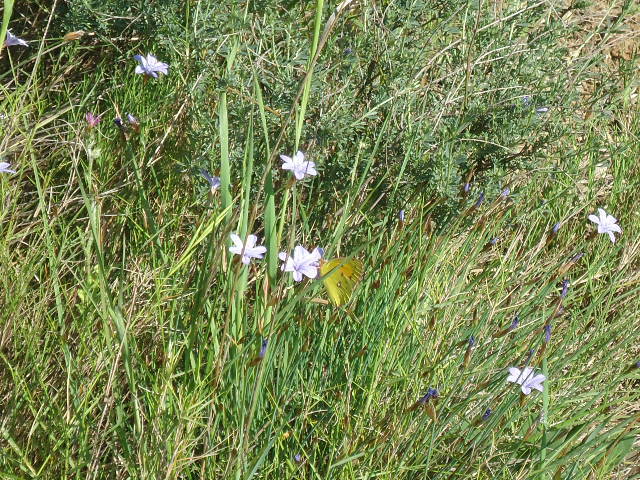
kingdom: Animalia
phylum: Arthropoda
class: Insecta
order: Lepidoptera
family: Pieridae
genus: Colias
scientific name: Colias croceus
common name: Clouded yellow
